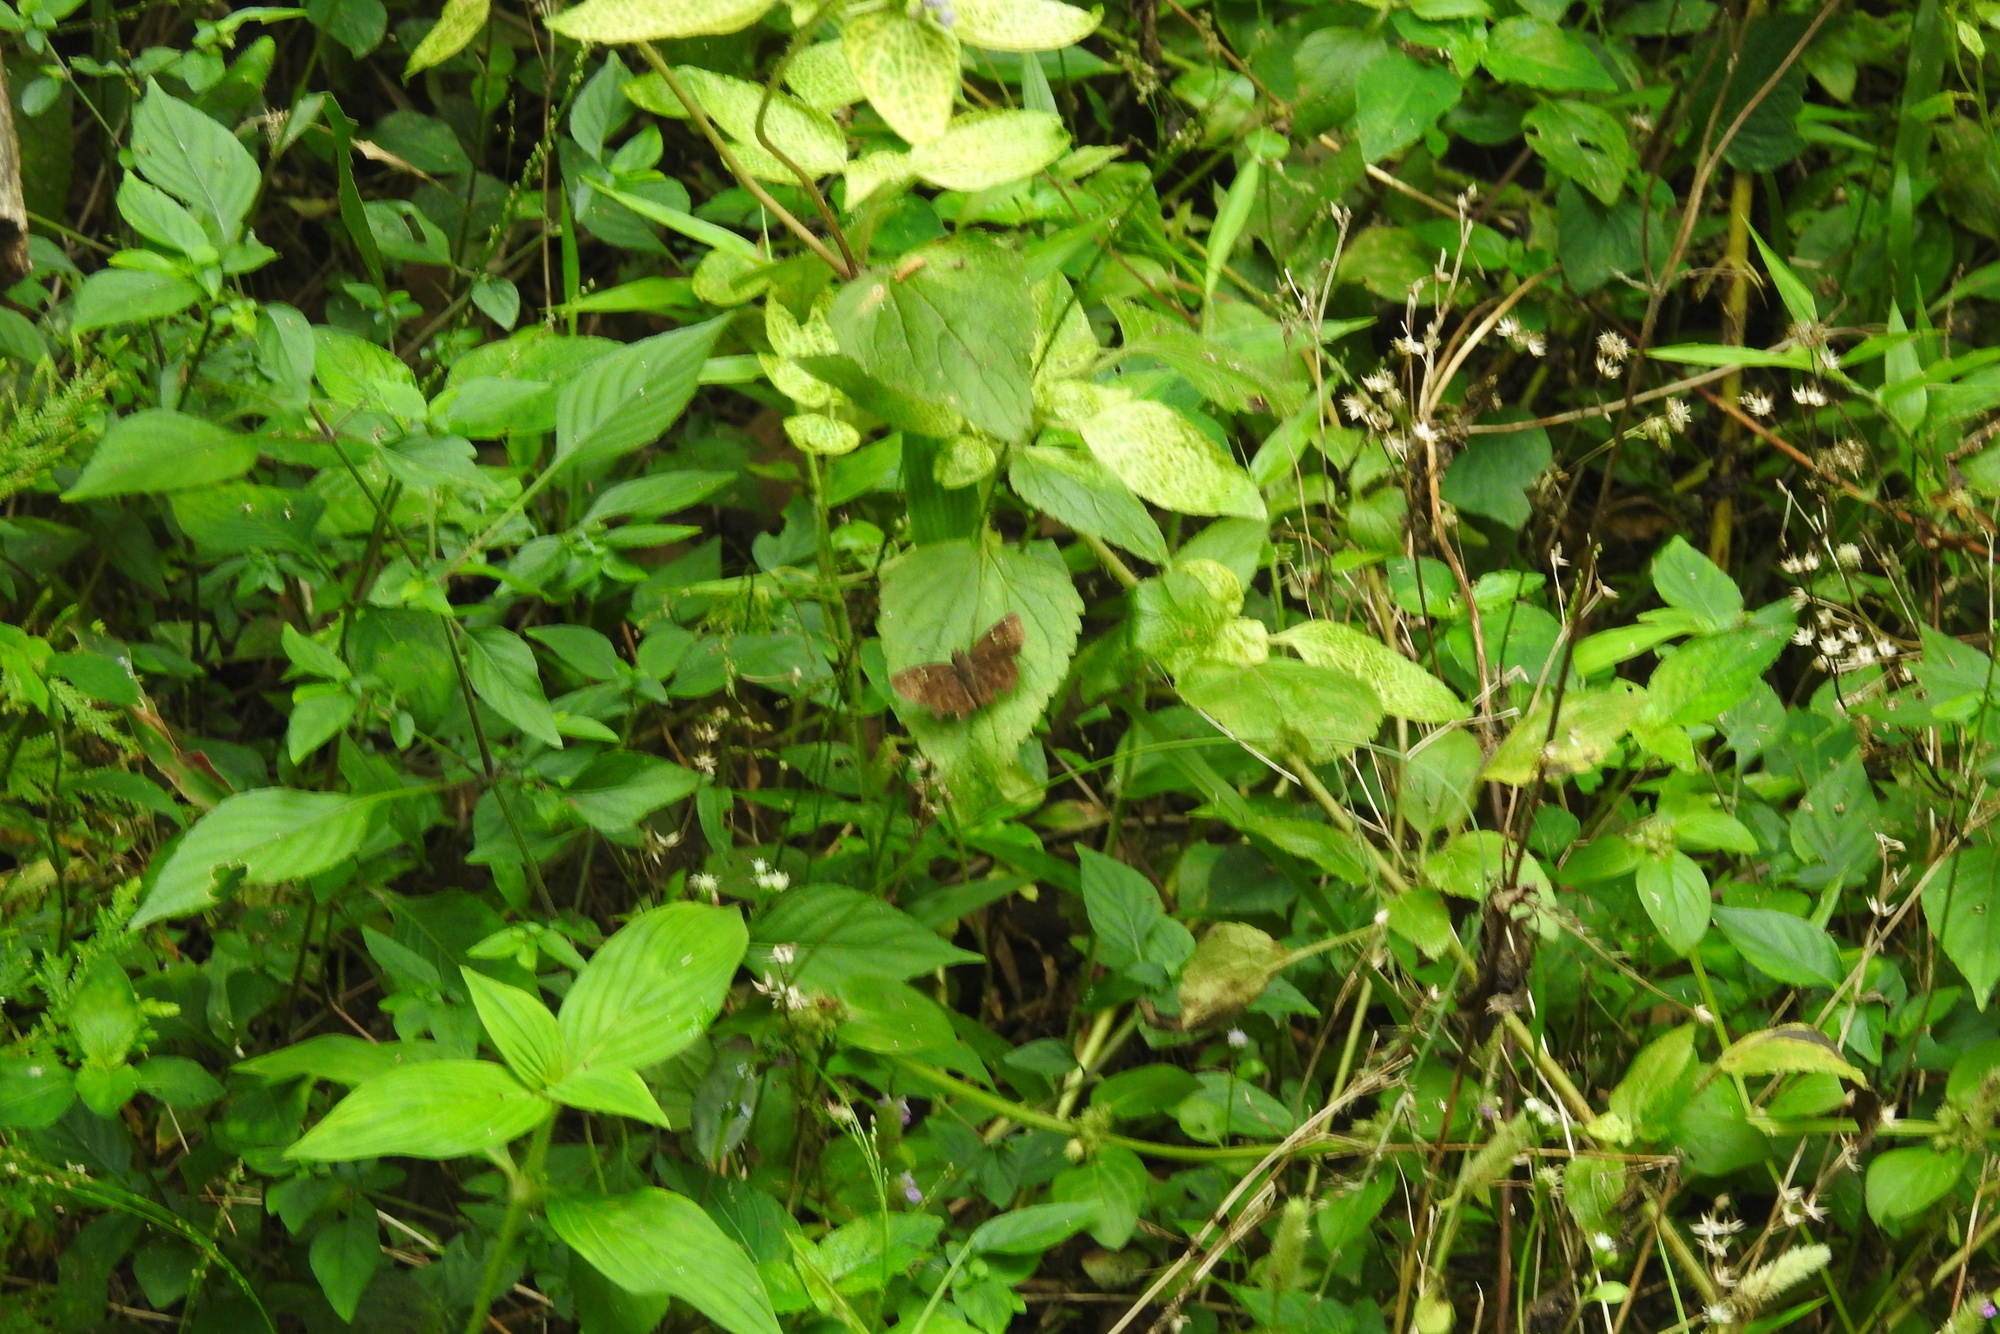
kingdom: Animalia
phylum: Arthropoda
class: Insecta
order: Lepidoptera
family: Hesperiidae
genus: Sarangesa
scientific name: Sarangesa dasahara
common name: Common small flat
